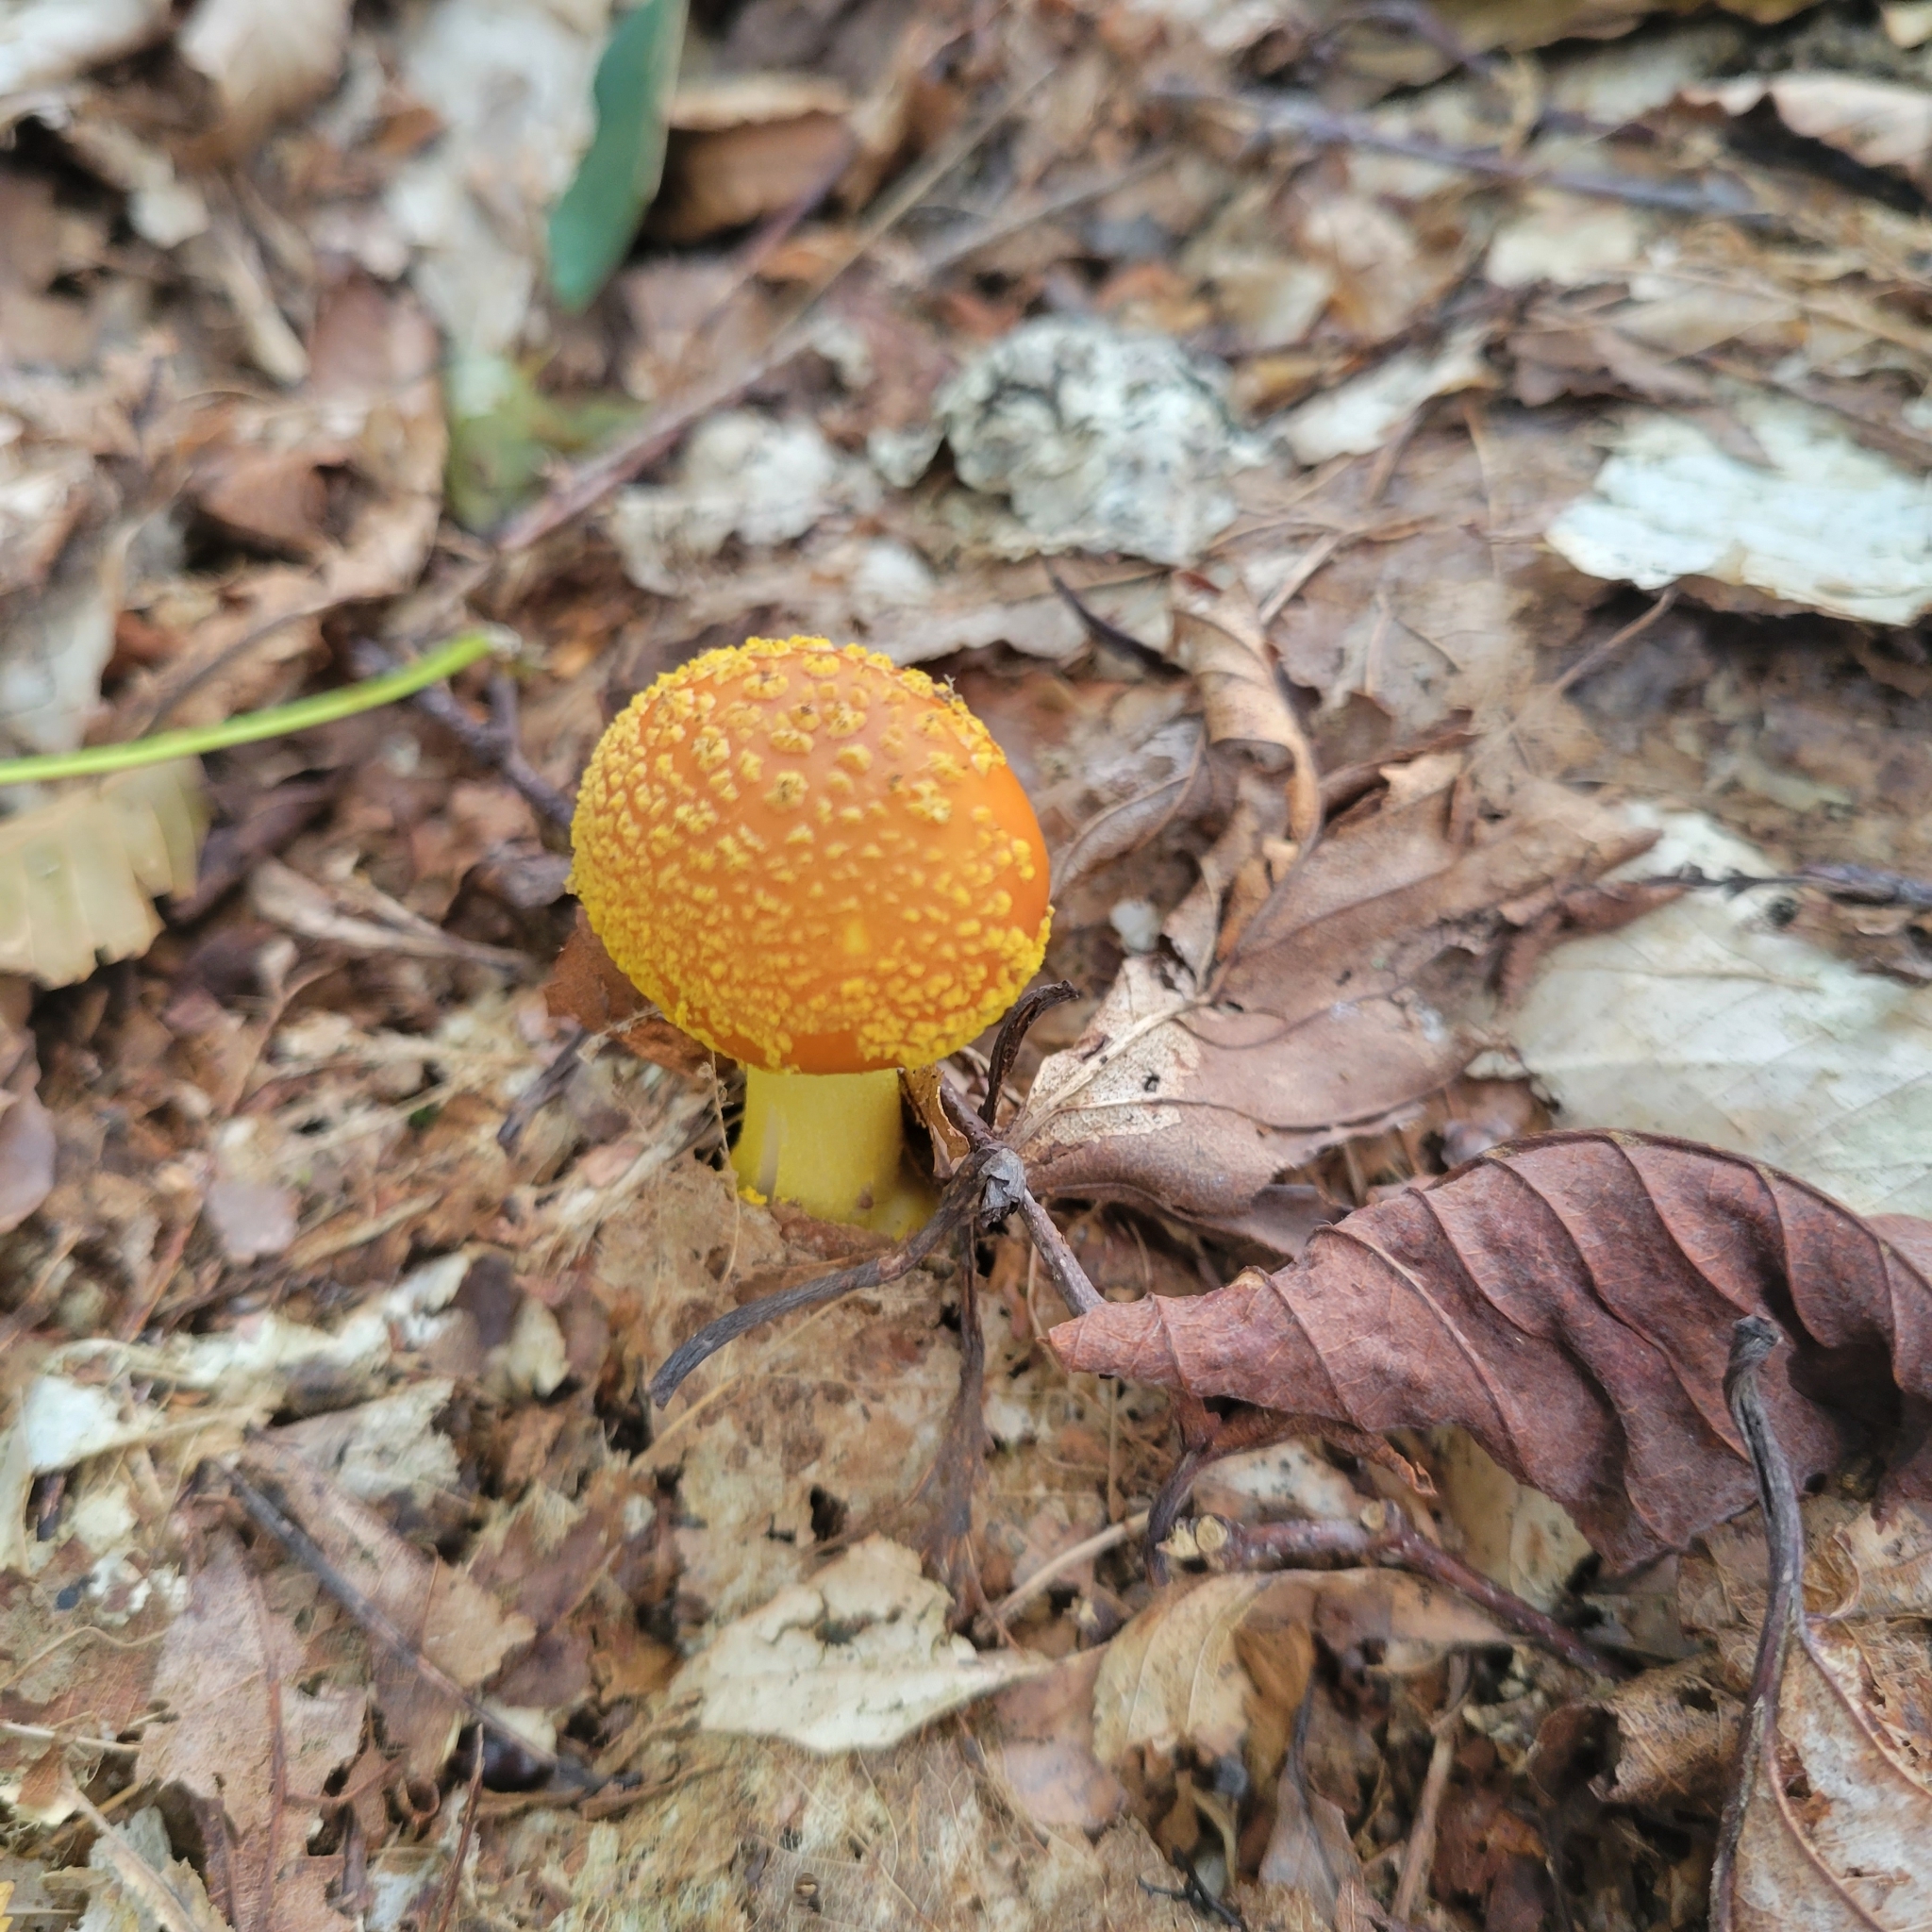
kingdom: Fungi
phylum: Basidiomycota
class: Agaricomycetes
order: Agaricales
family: Amanitaceae
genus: Amanita
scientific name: Amanita flavoconia
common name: Yellow patches
